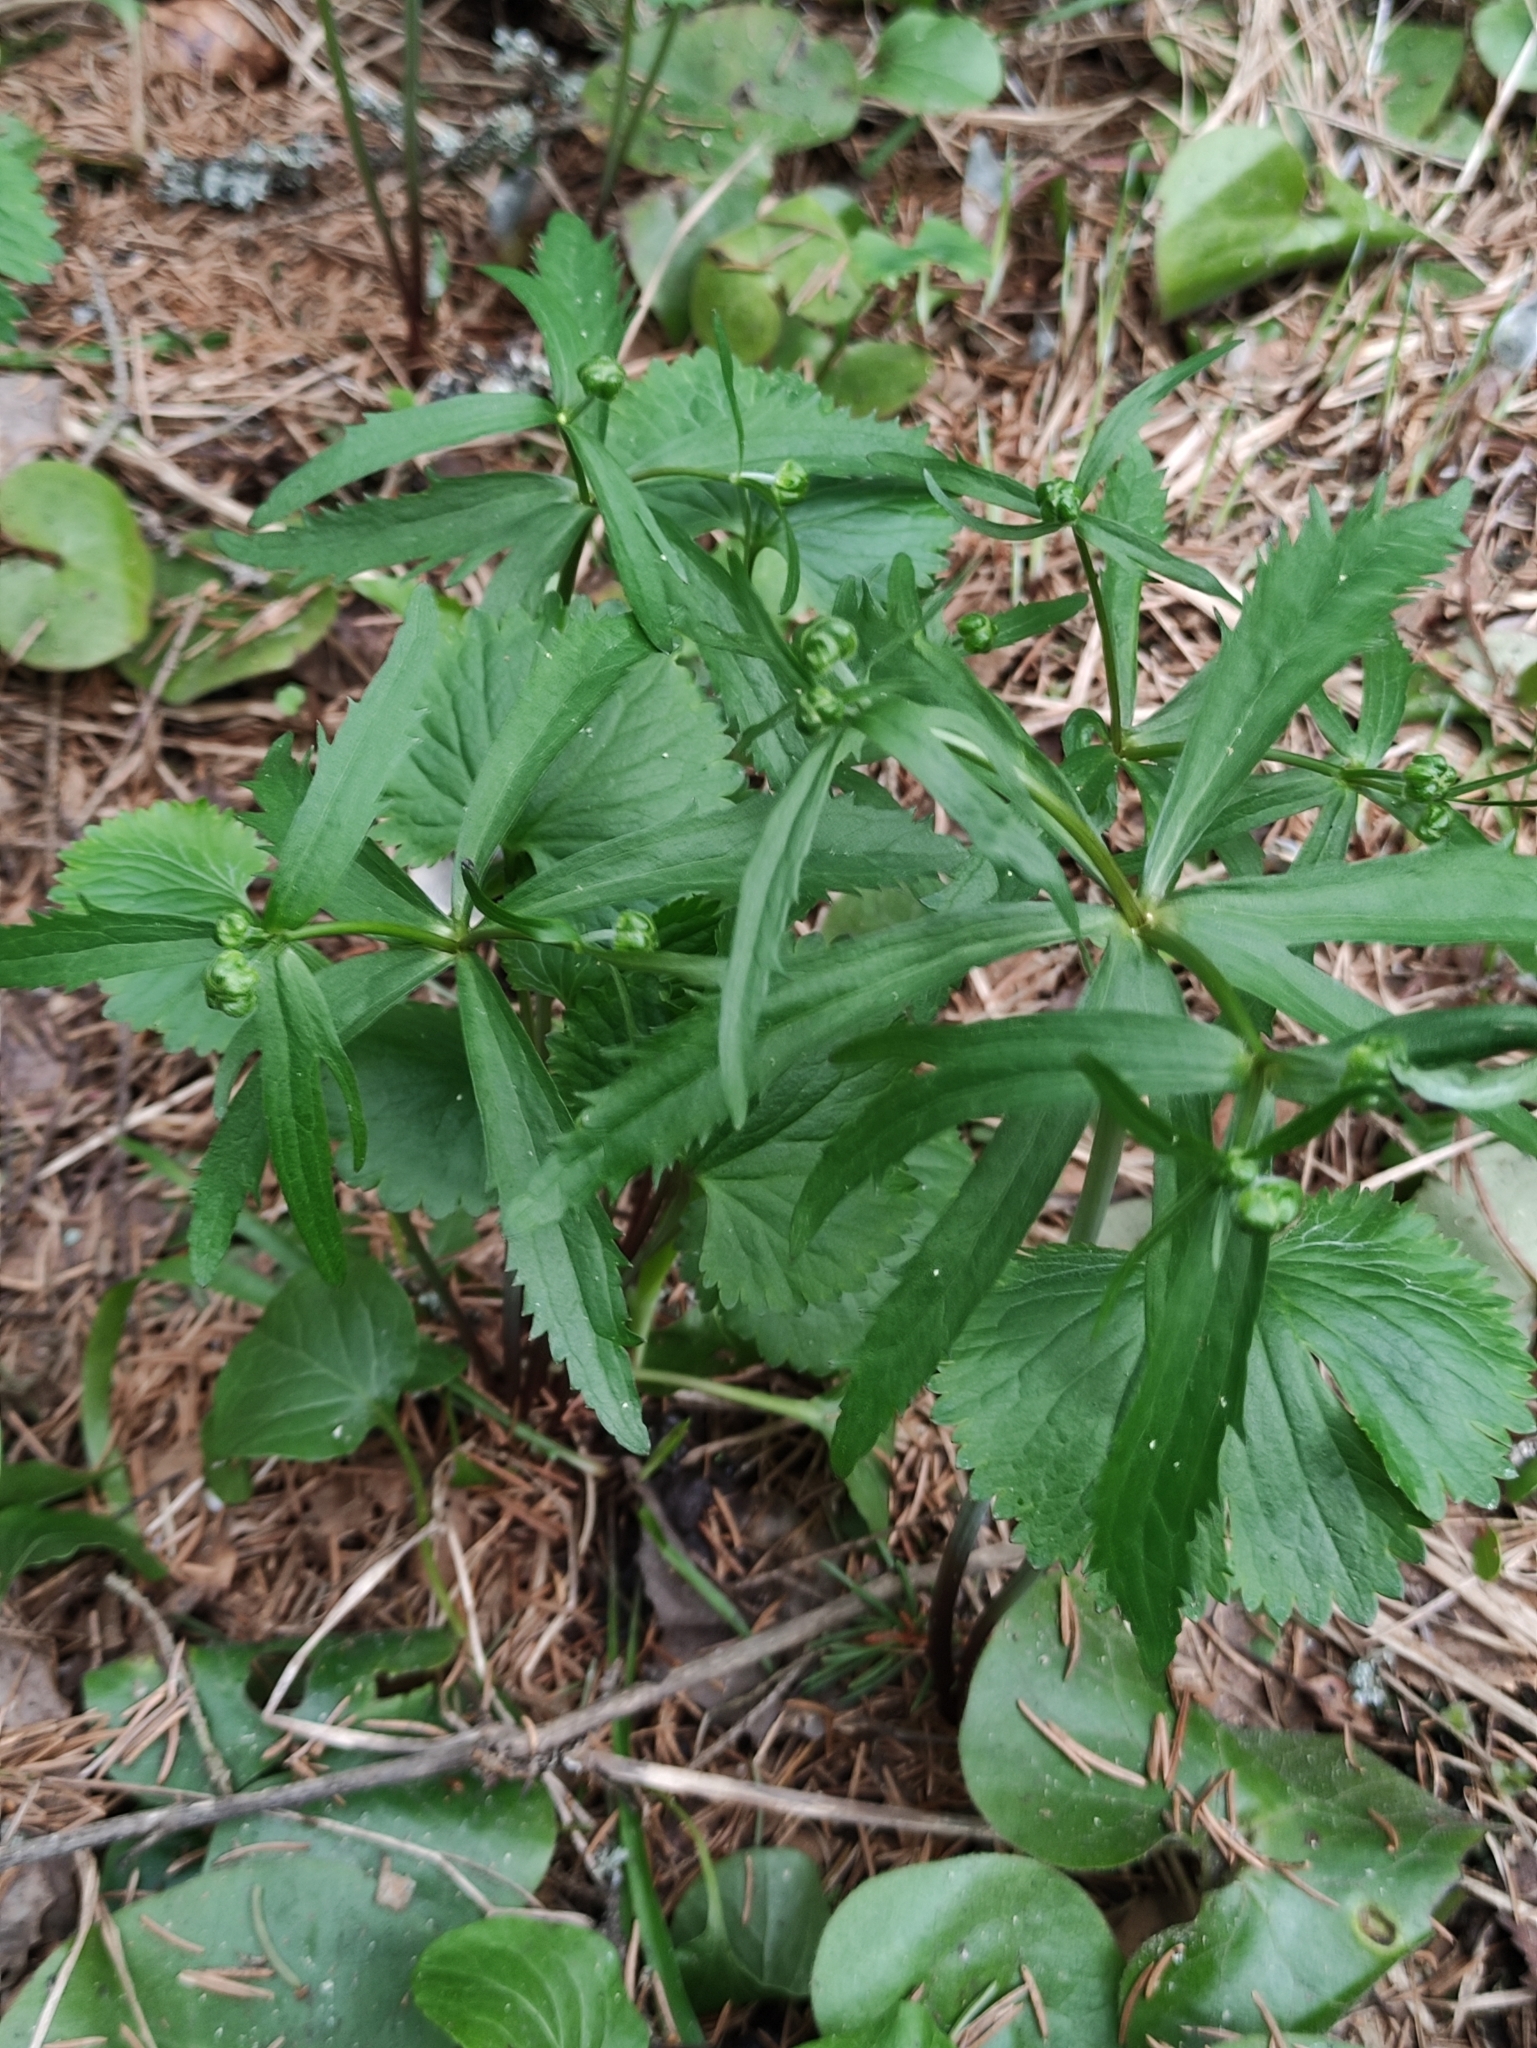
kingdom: Plantae
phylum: Tracheophyta
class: Magnoliopsida
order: Ranunculales
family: Ranunculaceae
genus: Ranunculus
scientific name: Ranunculus cassubicus
